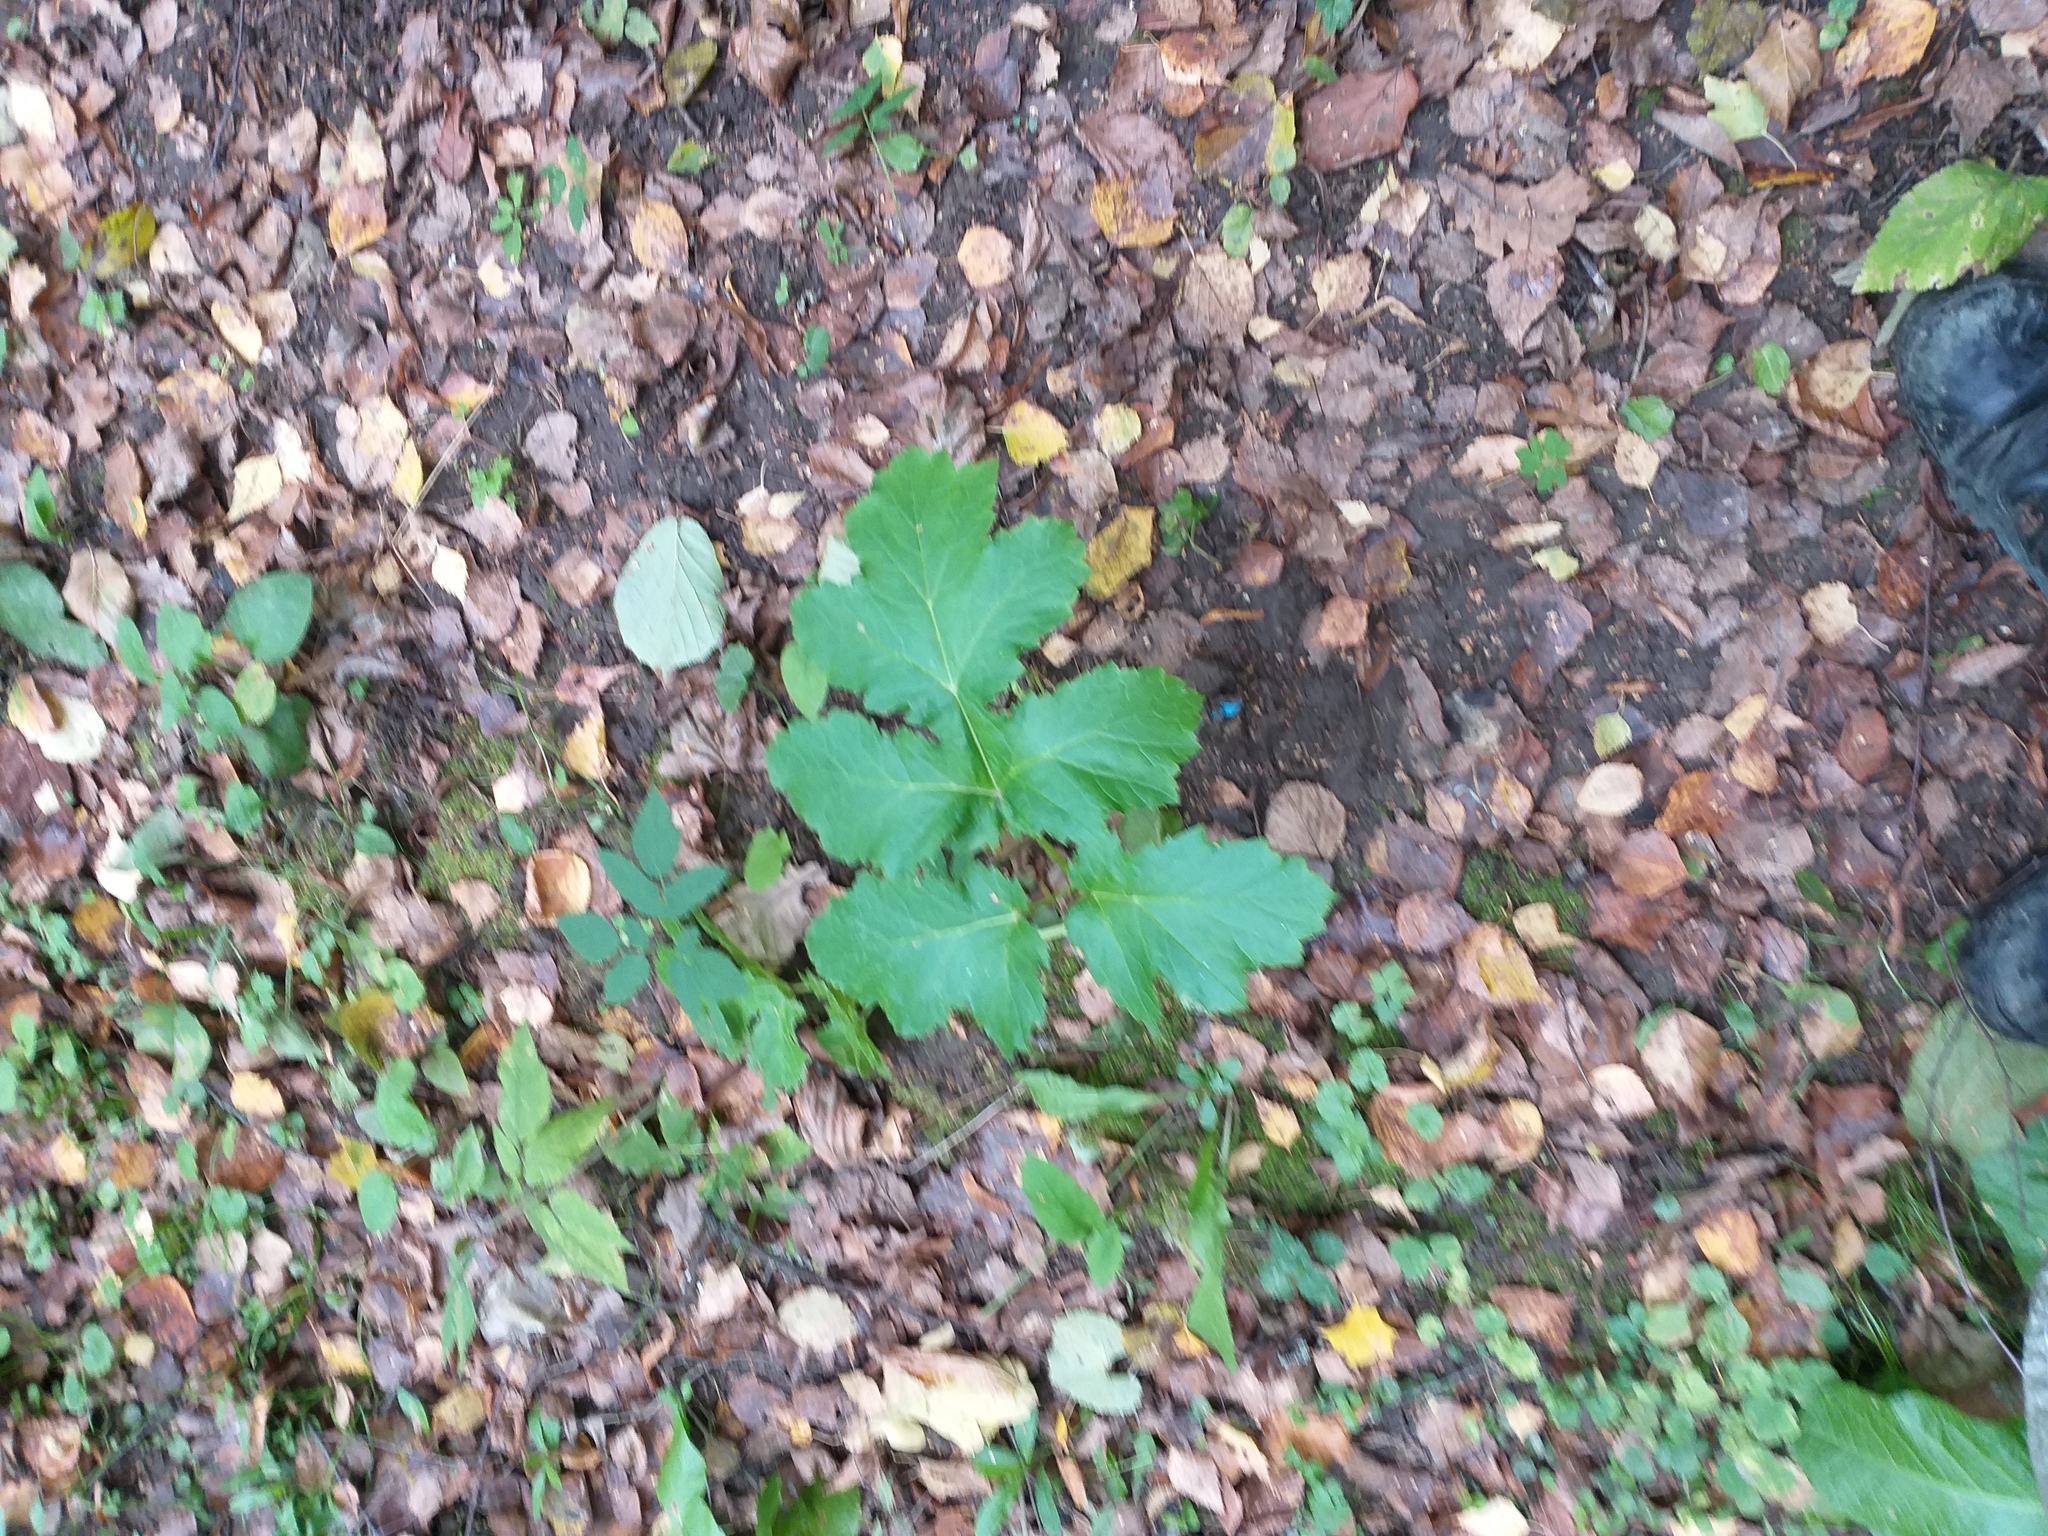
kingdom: Plantae
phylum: Tracheophyta
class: Magnoliopsida
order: Apiales
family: Apiaceae
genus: Heracleum
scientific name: Heracleum sosnowskyi
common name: Sosnowsky's hogweed
